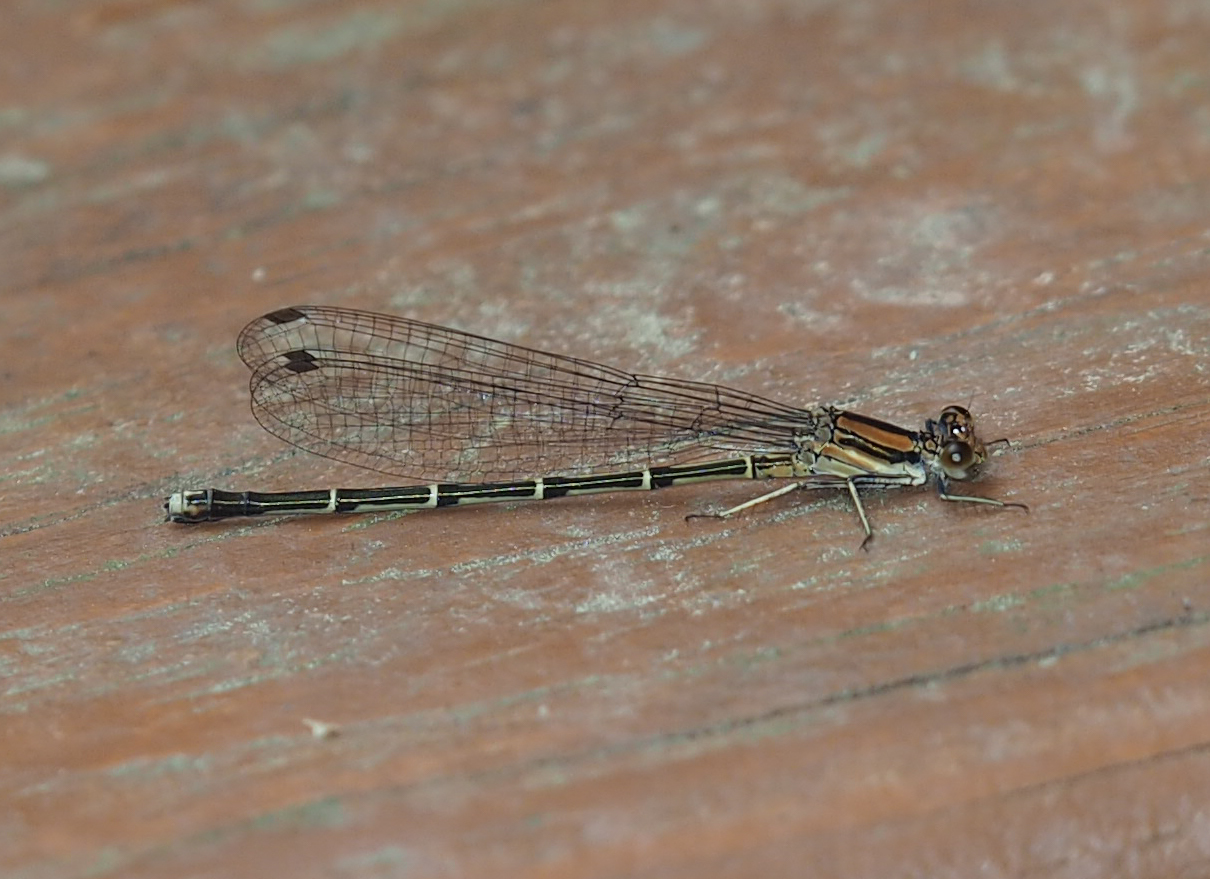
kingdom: Animalia
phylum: Arthropoda
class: Insecta
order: Odonata
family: Coenagrionidae
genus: Argia
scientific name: Argia tibialis
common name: Blue-tipped dancer
